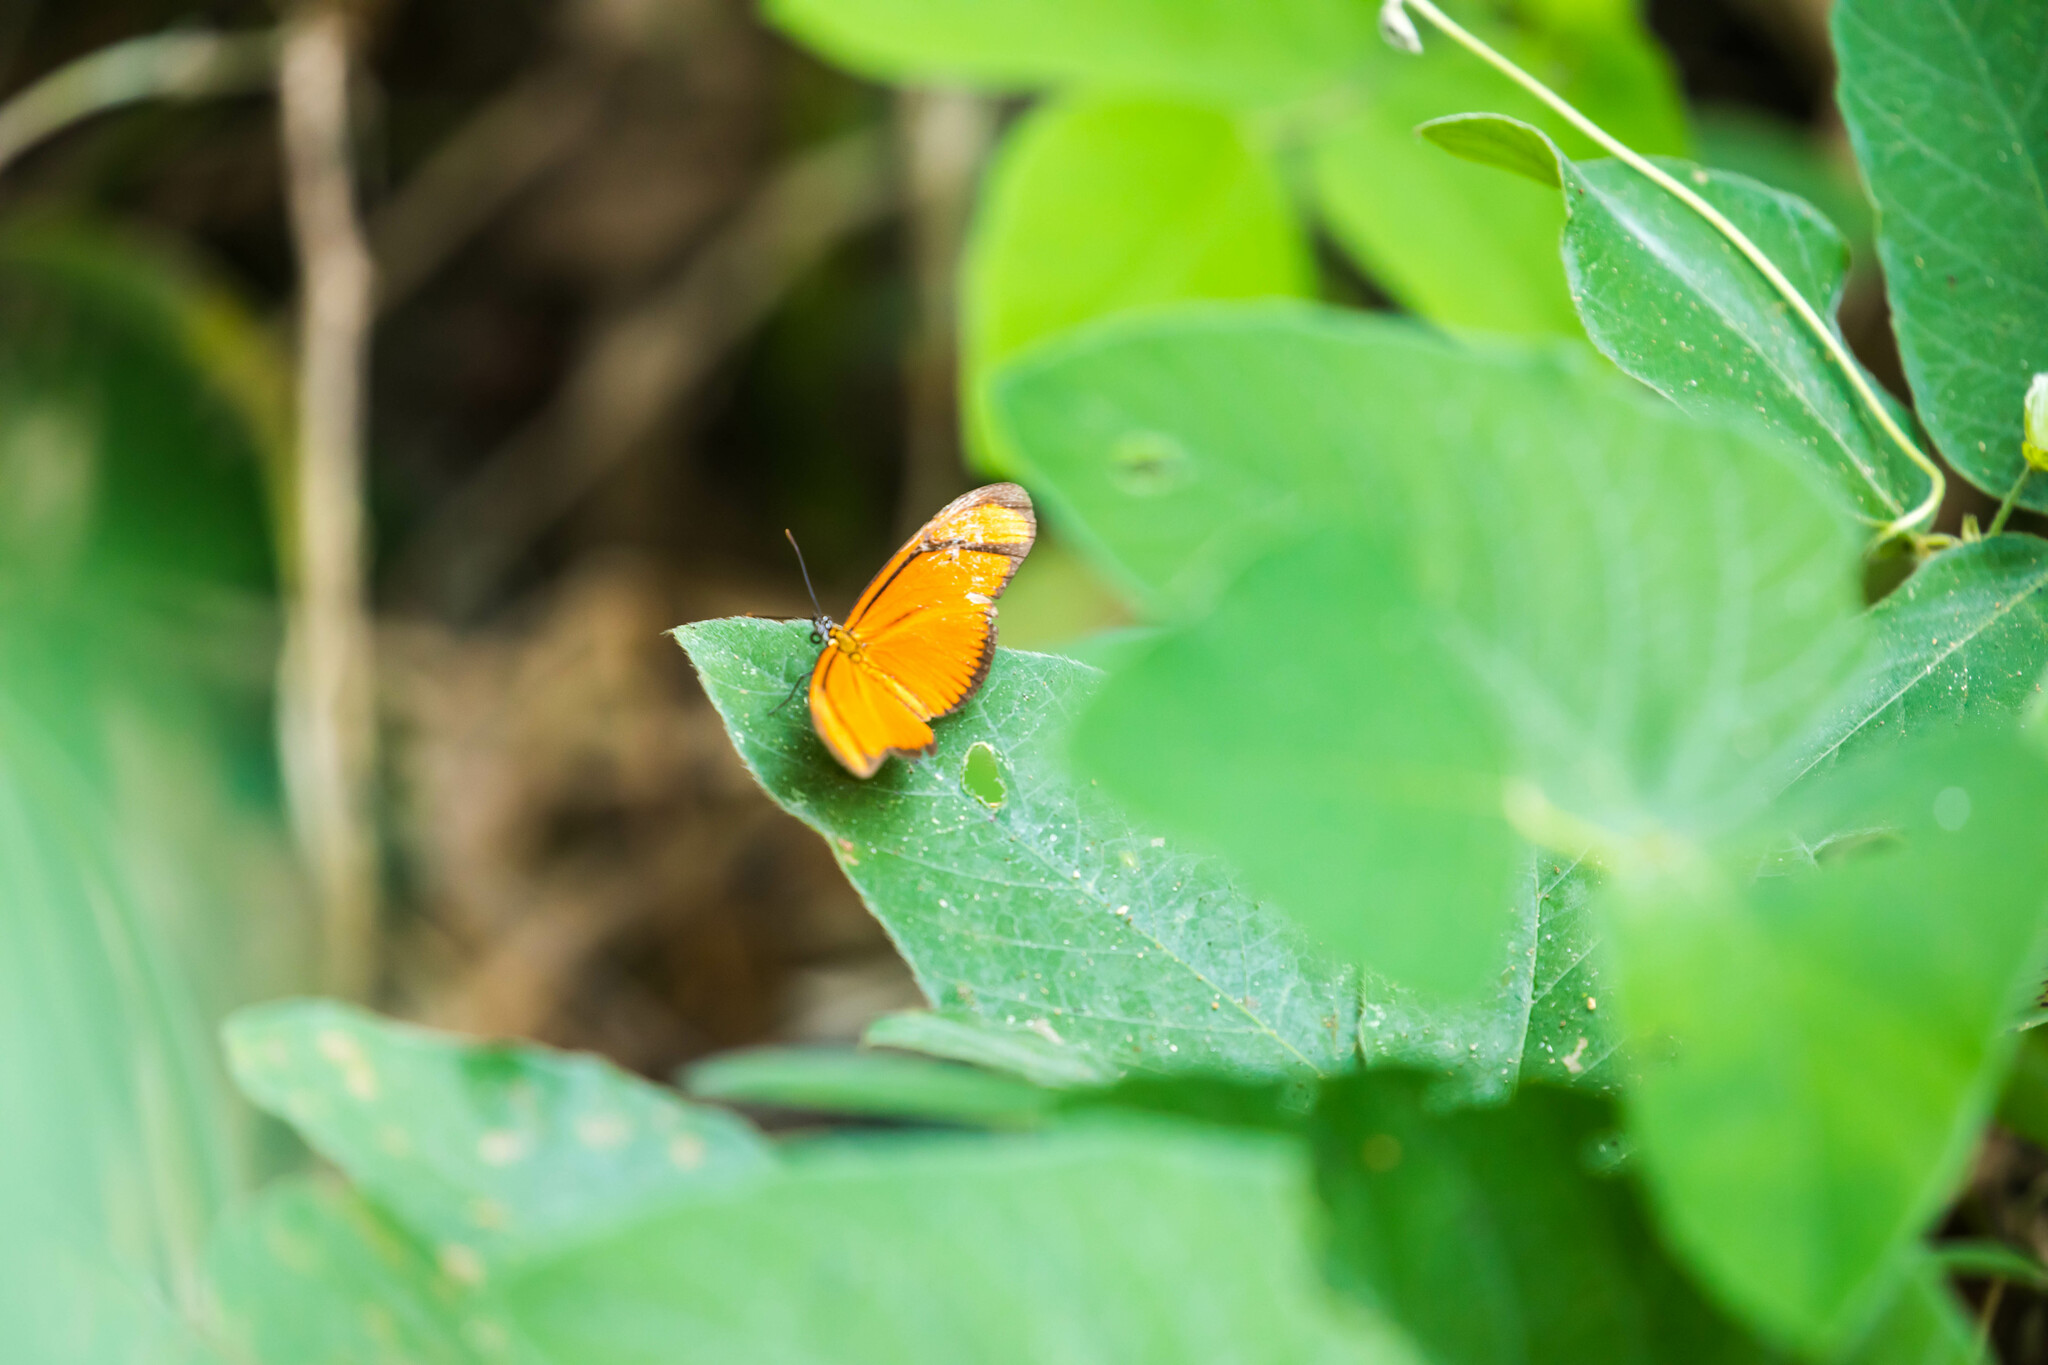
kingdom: Animalia
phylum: Arthropoda
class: Insecta
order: Lepidoptera
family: Nymphalidae
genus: Heliconius
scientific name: Heliconius aliphera
